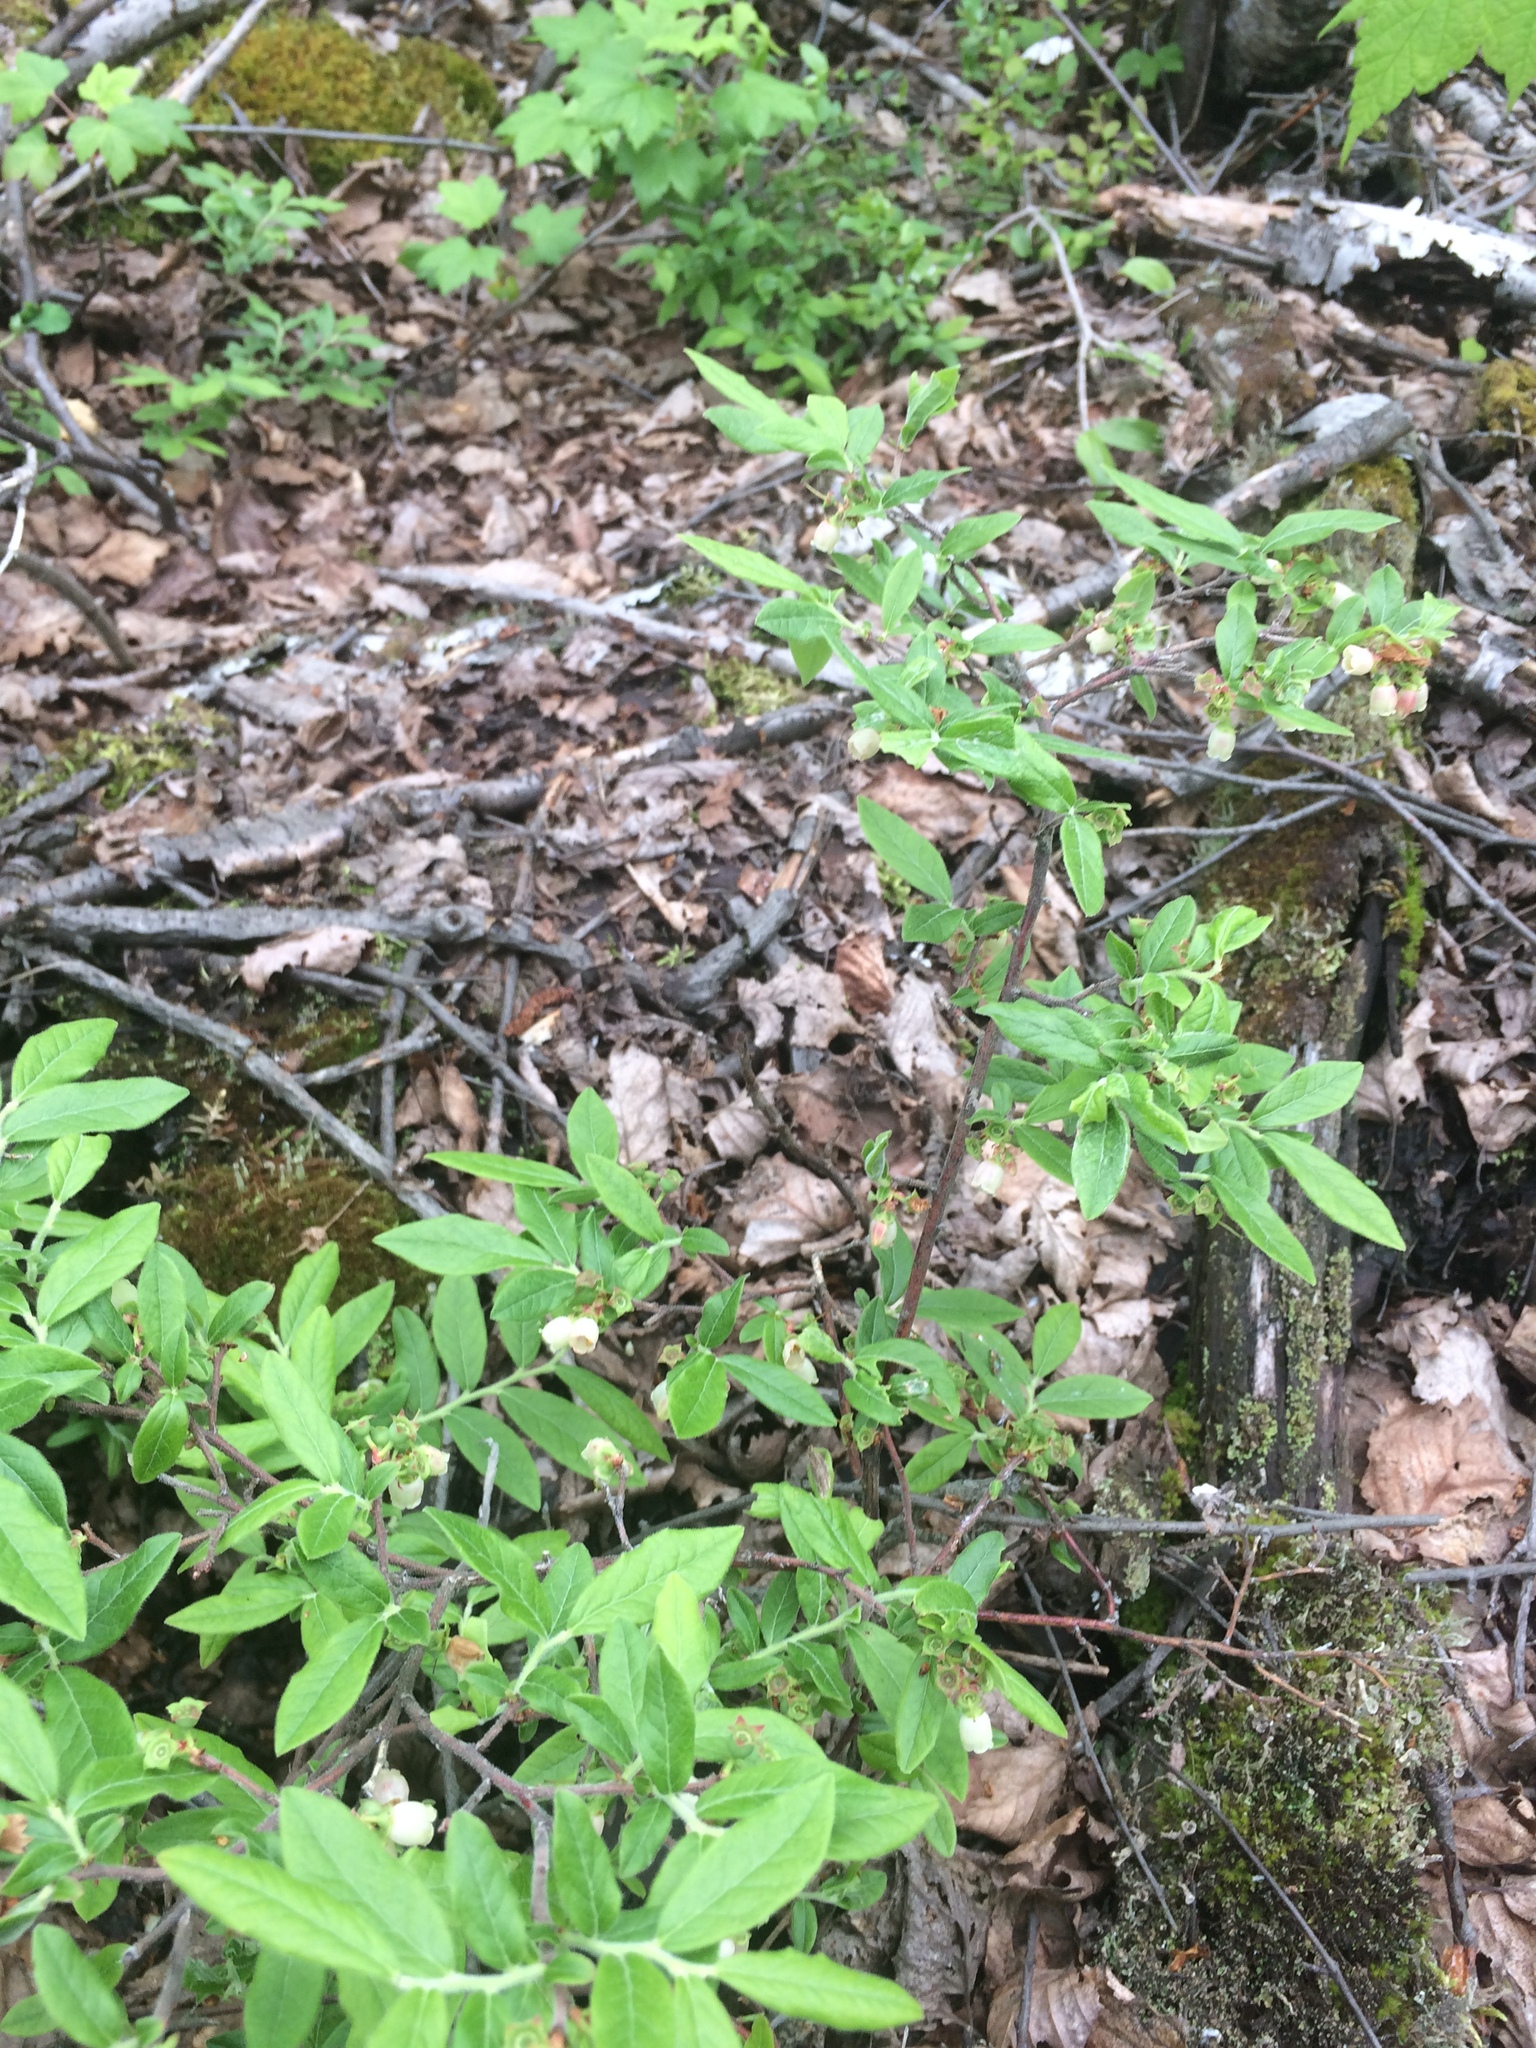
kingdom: Plantae
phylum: Tracheophyta
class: Magnoliopsida
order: Ericales
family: Ericaceae
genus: Vaccinium
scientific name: Vaccinium myrtilloides
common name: Canada blueberry
